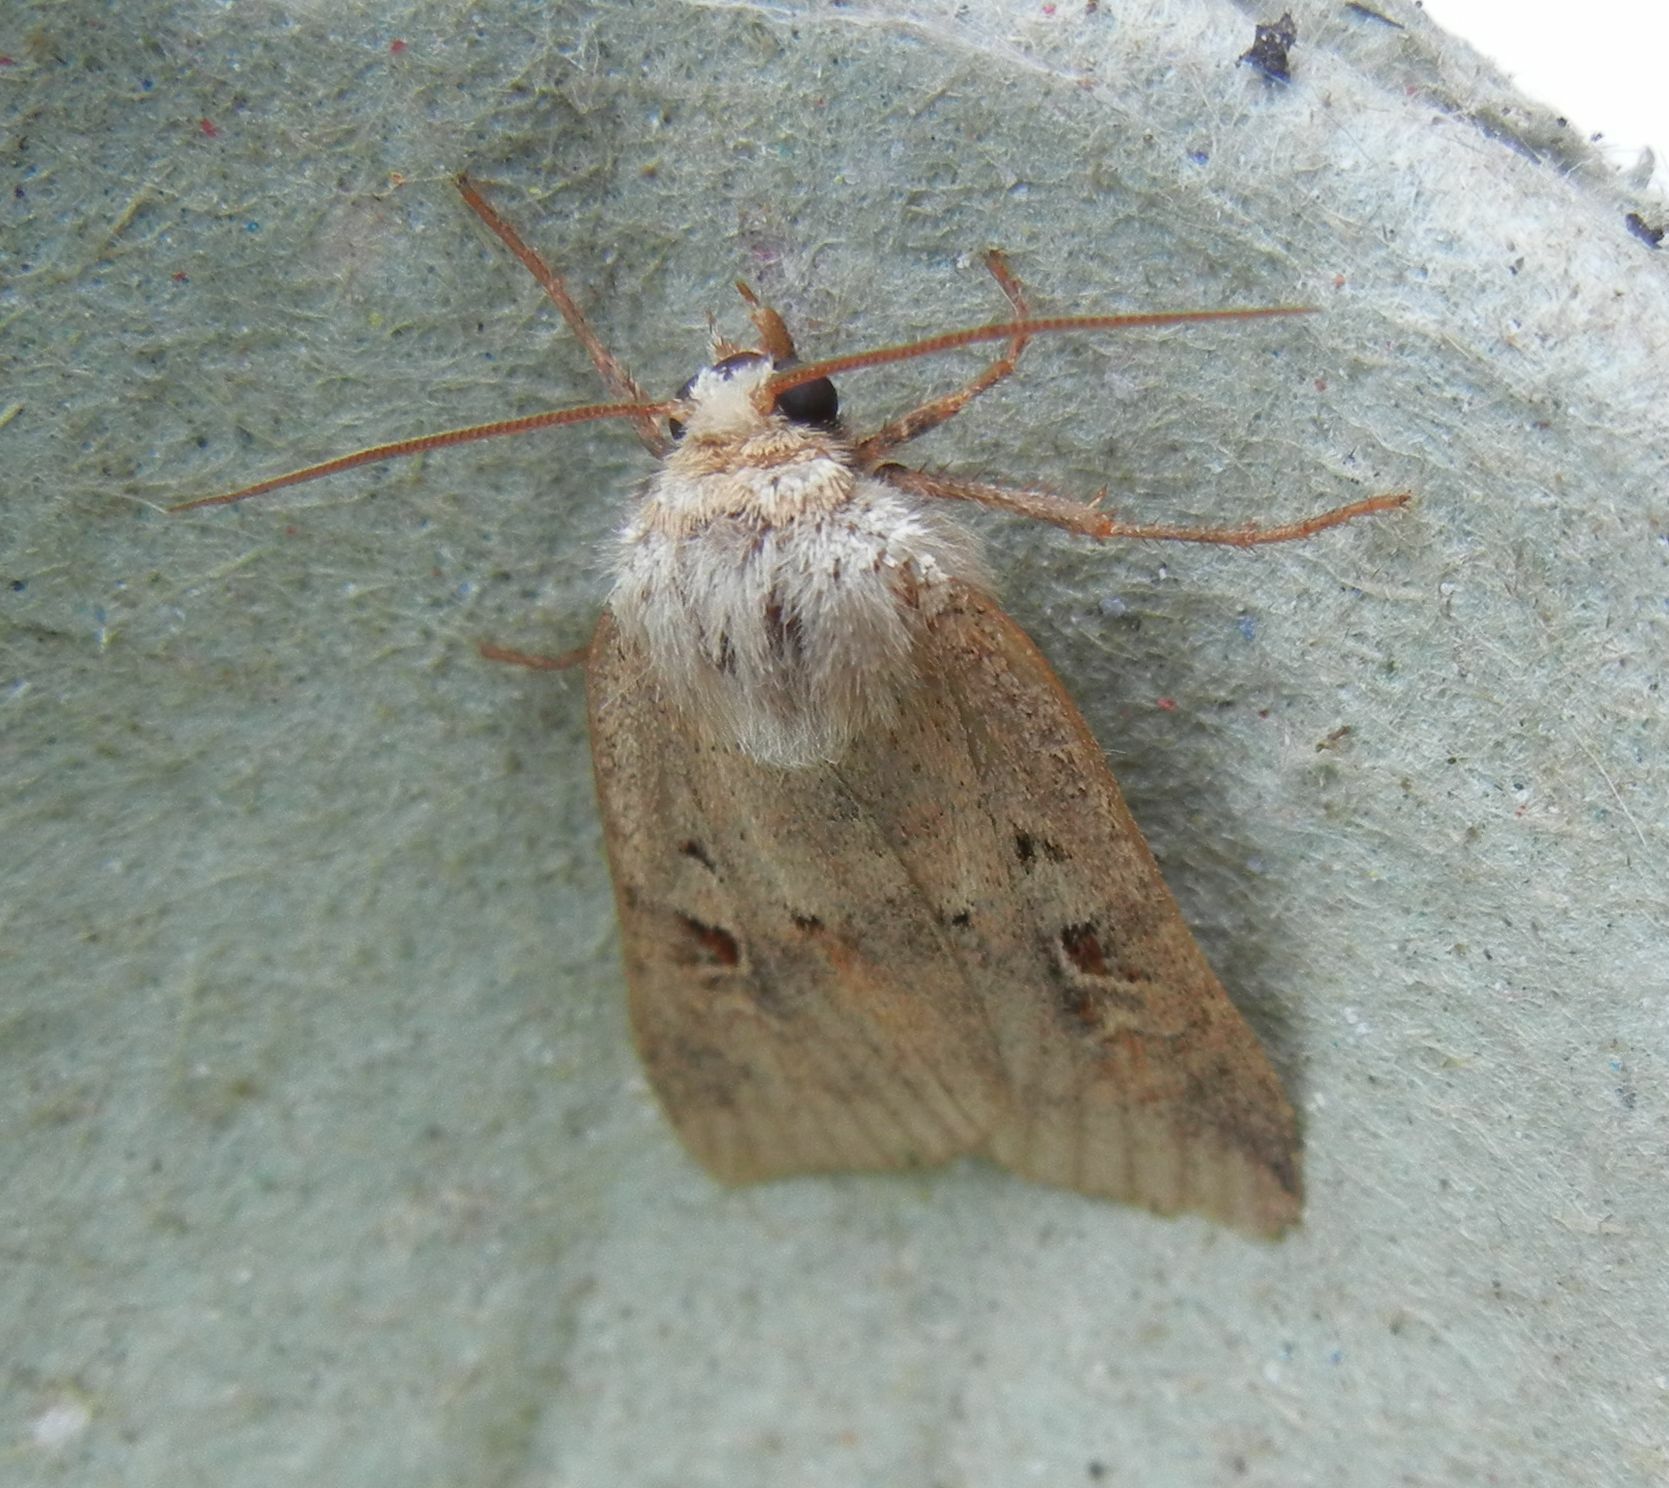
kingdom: Animalia
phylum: Arthropoda
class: Insecta
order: Lepidoptera
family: Noctuidae
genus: Diarsia
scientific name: Diarsia mendica
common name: Ingrailed clay
